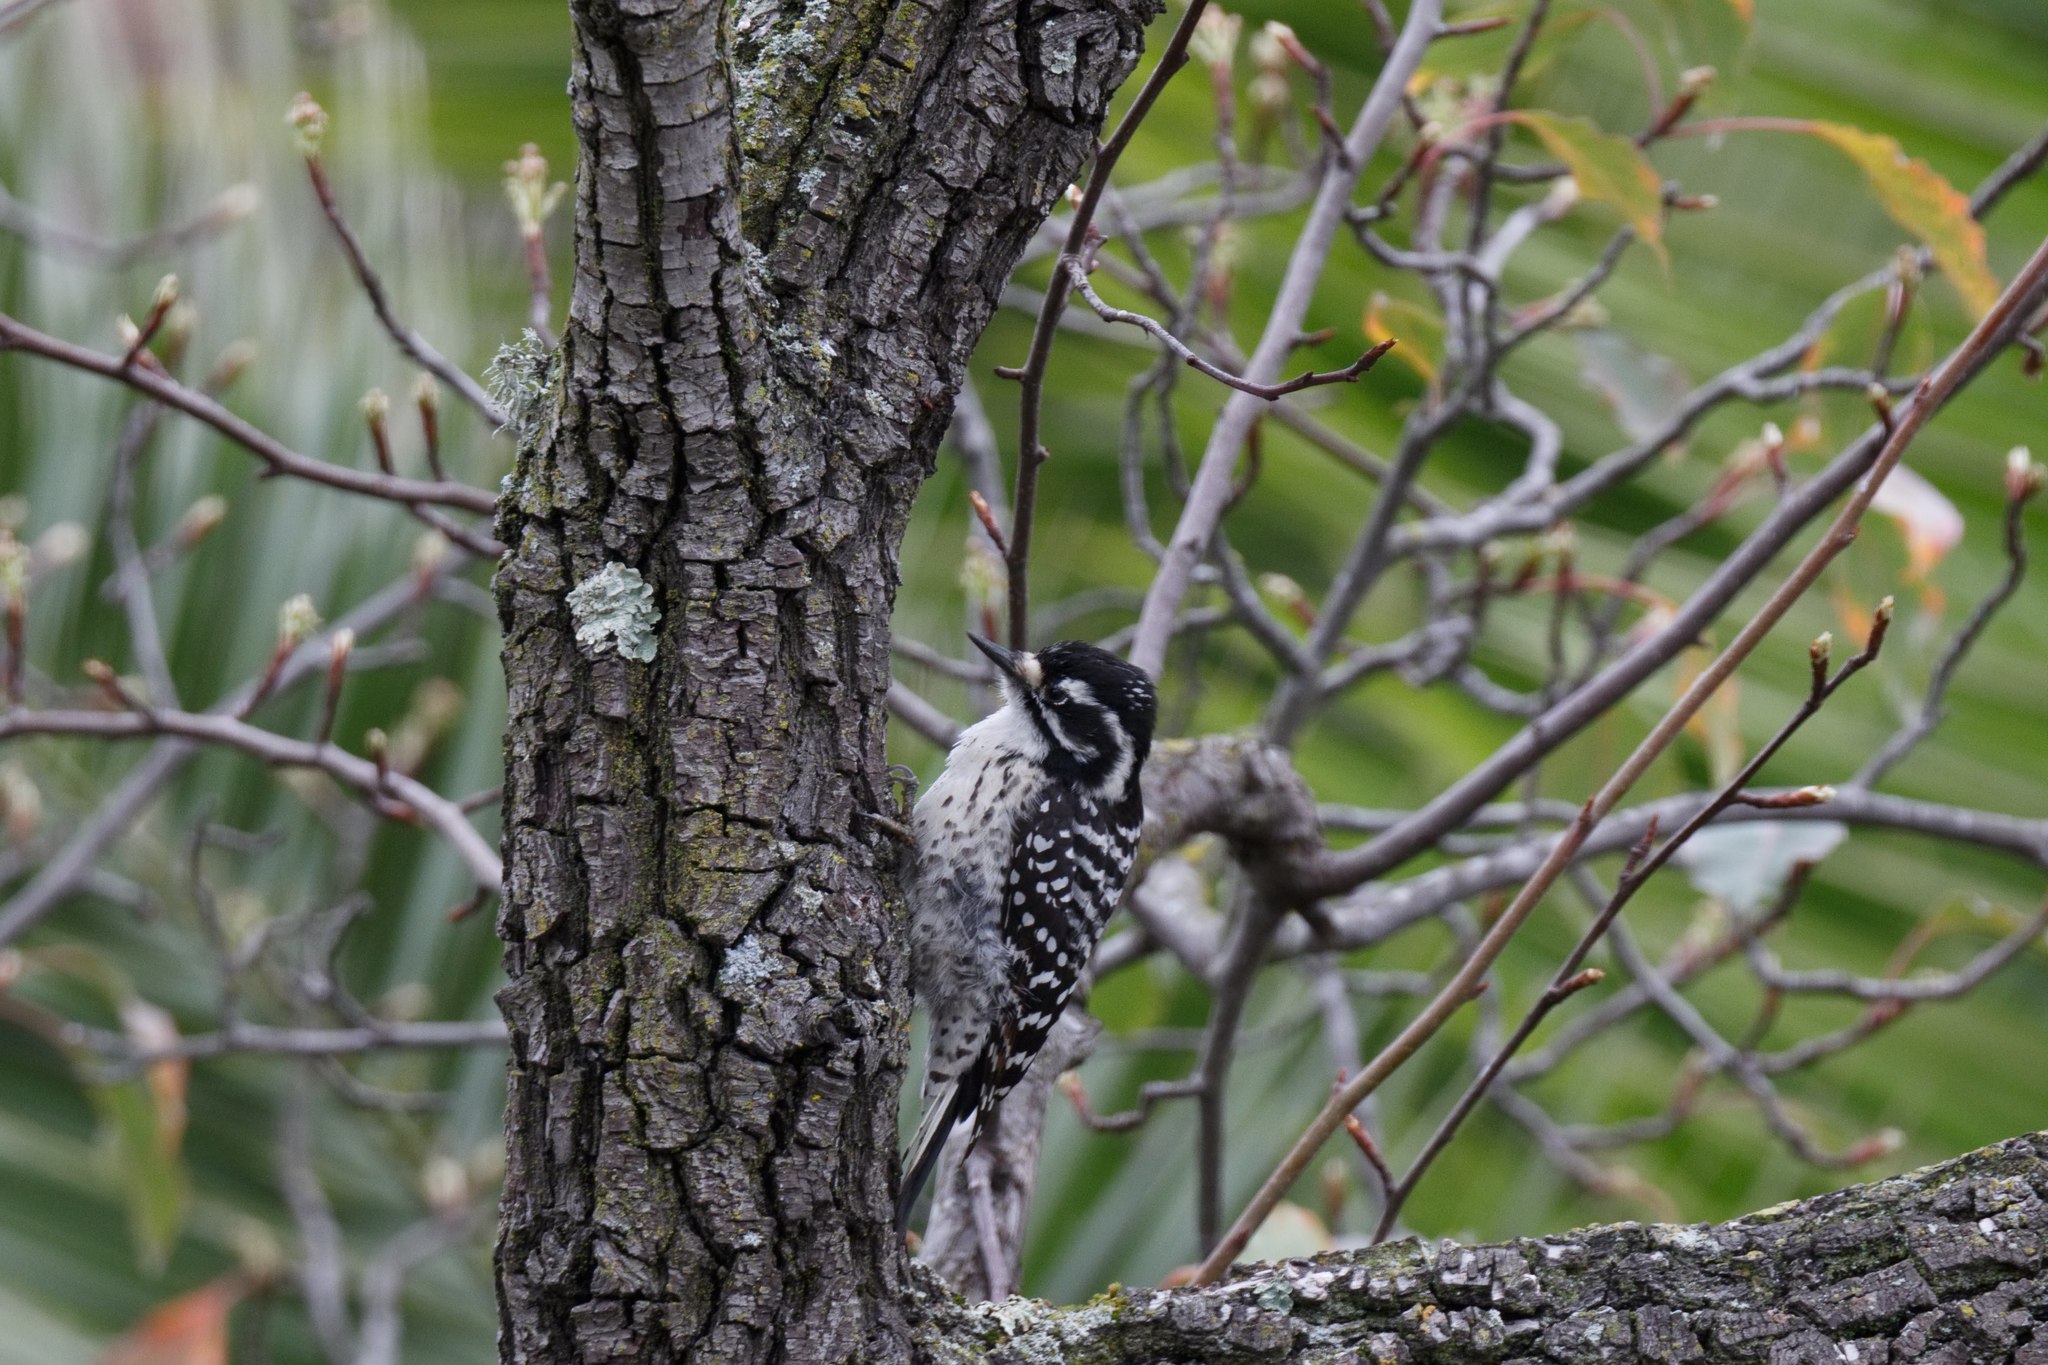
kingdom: Animalia
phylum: Chordata
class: Aves
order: Piciformes
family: Picidae
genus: Dryobates
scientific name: Dryobates nuttallii
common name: Nuttall's woodpecker
